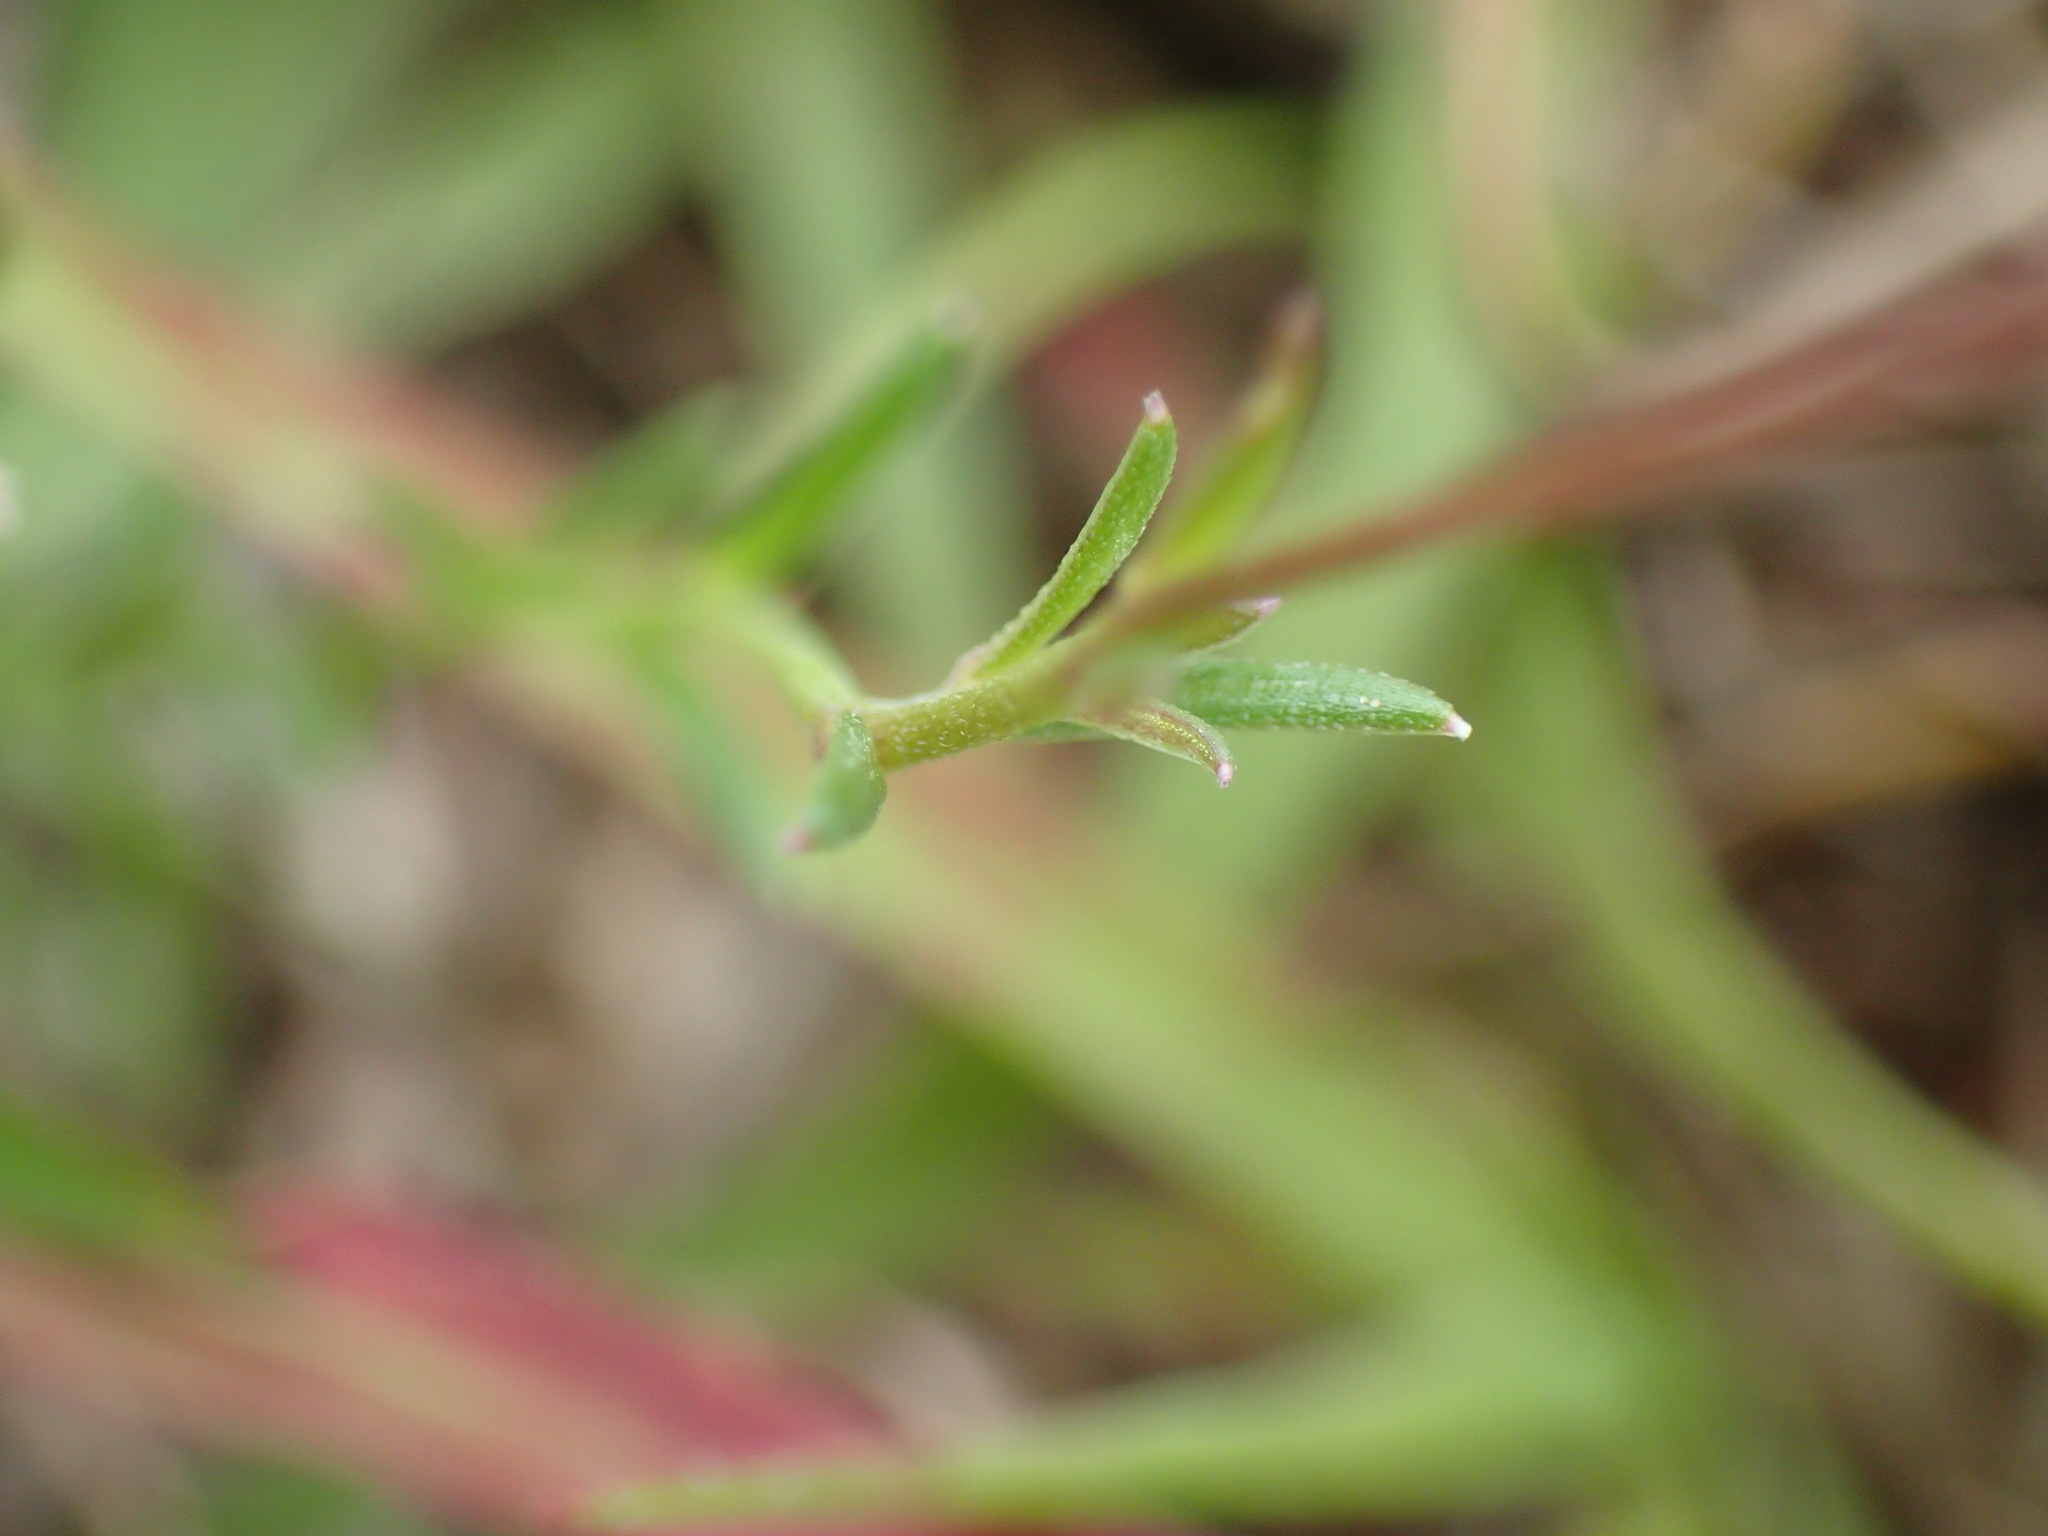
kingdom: Plantae
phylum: Tracheophyta
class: Magnoliopsida
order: Asterales
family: Campanulaceae
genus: Monopsis
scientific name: Monopsis decipiens
